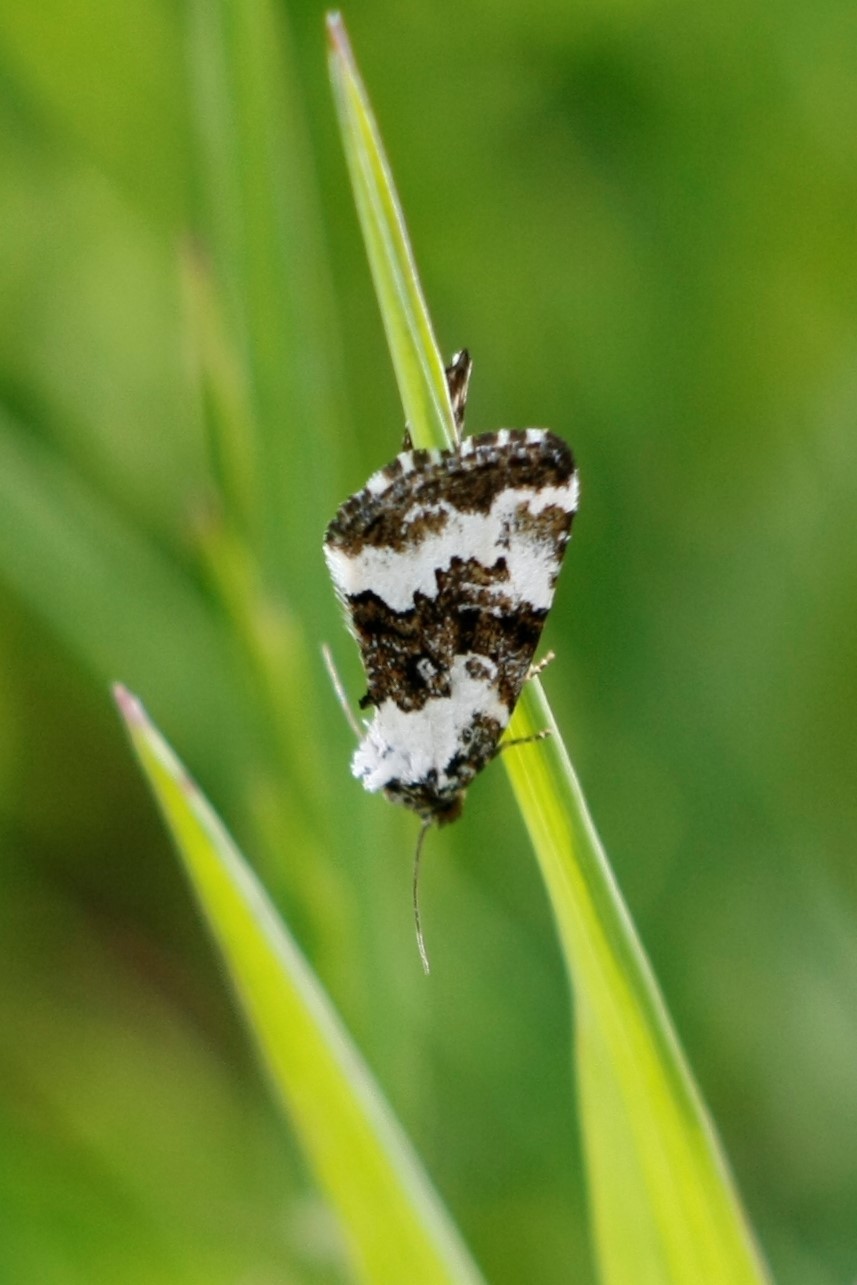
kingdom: Animalia
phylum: Arthropoda
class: Insecta
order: Lepidoptera
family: Noctuidae
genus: Deltote
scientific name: Deltote deceptoria
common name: Pretty marbled
